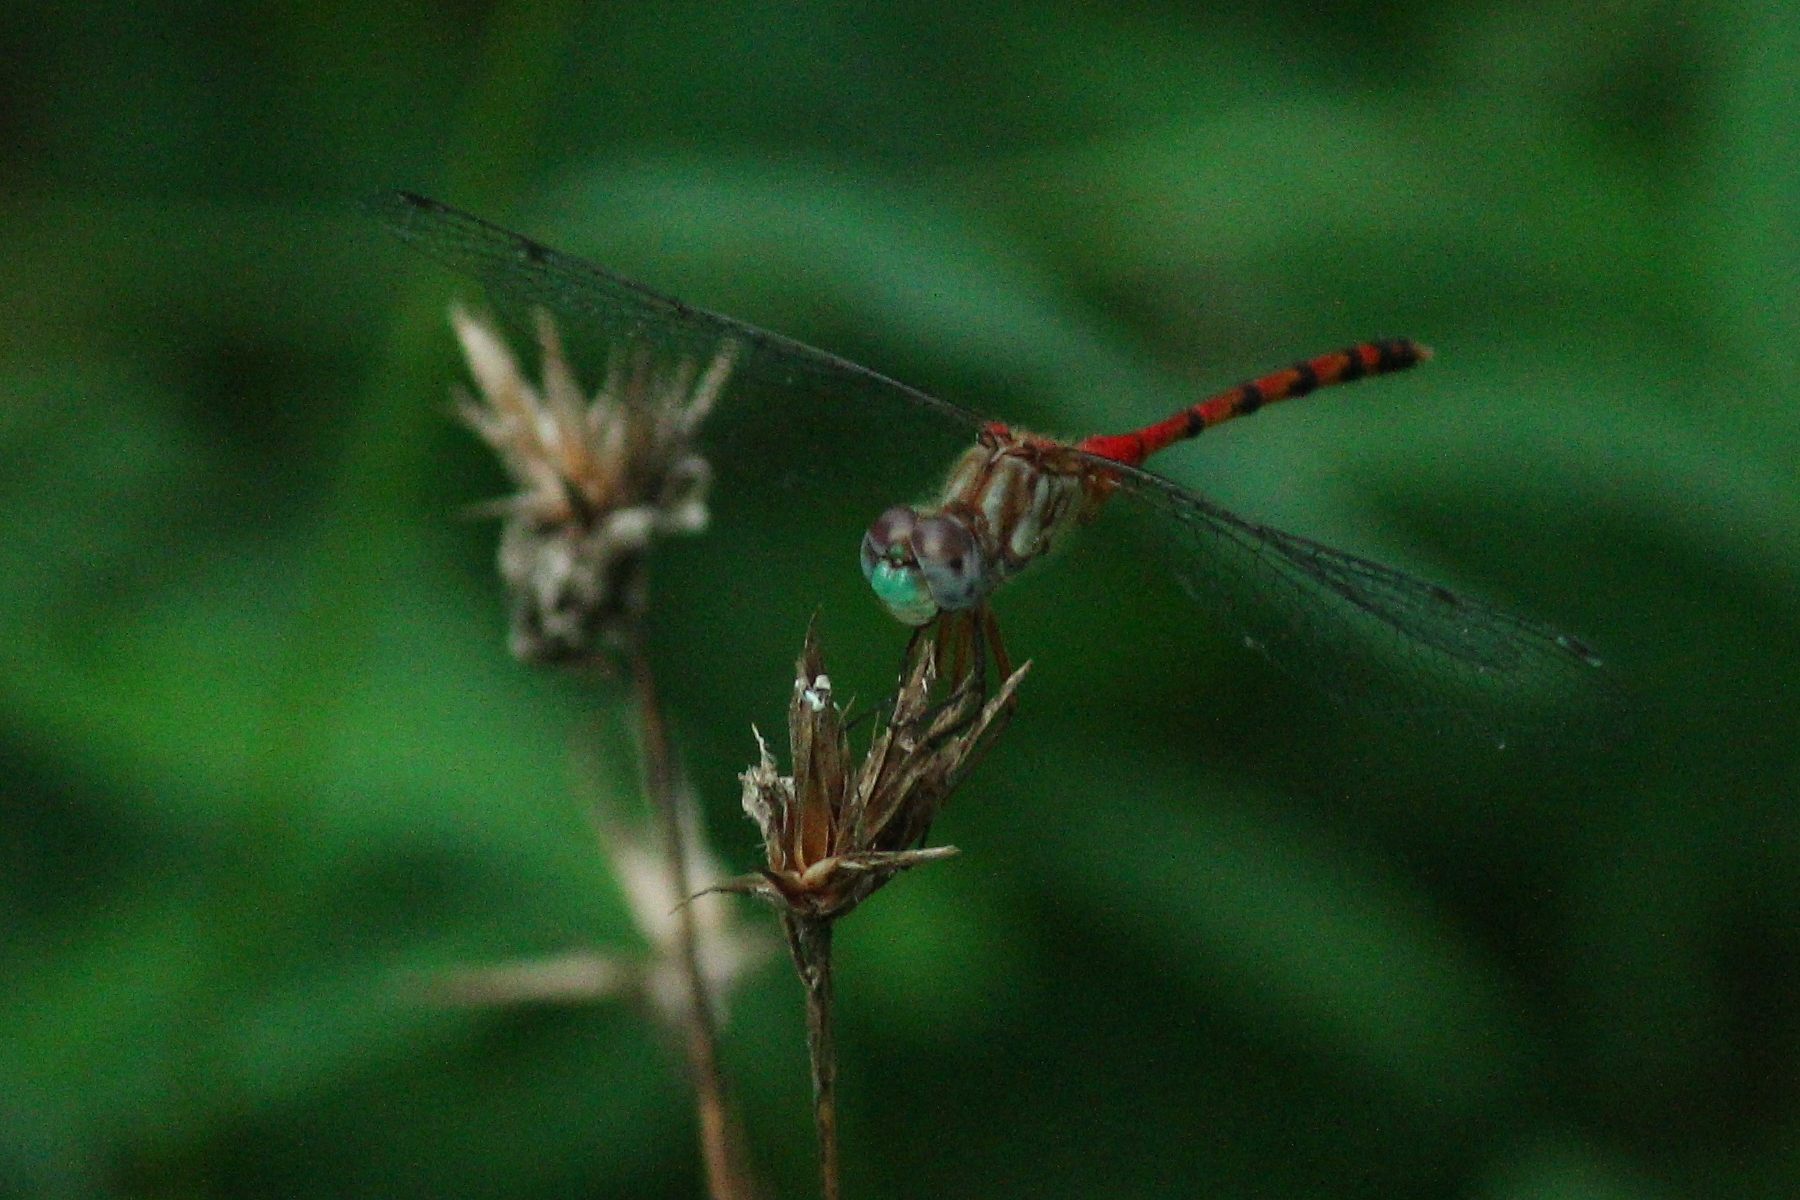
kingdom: Animalia
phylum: Arthropoda
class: Insecta
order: Odonata
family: Libellulidae
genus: Sympetrum
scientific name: Sympetrum ambiguum
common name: Blue-faced meadowhawk
